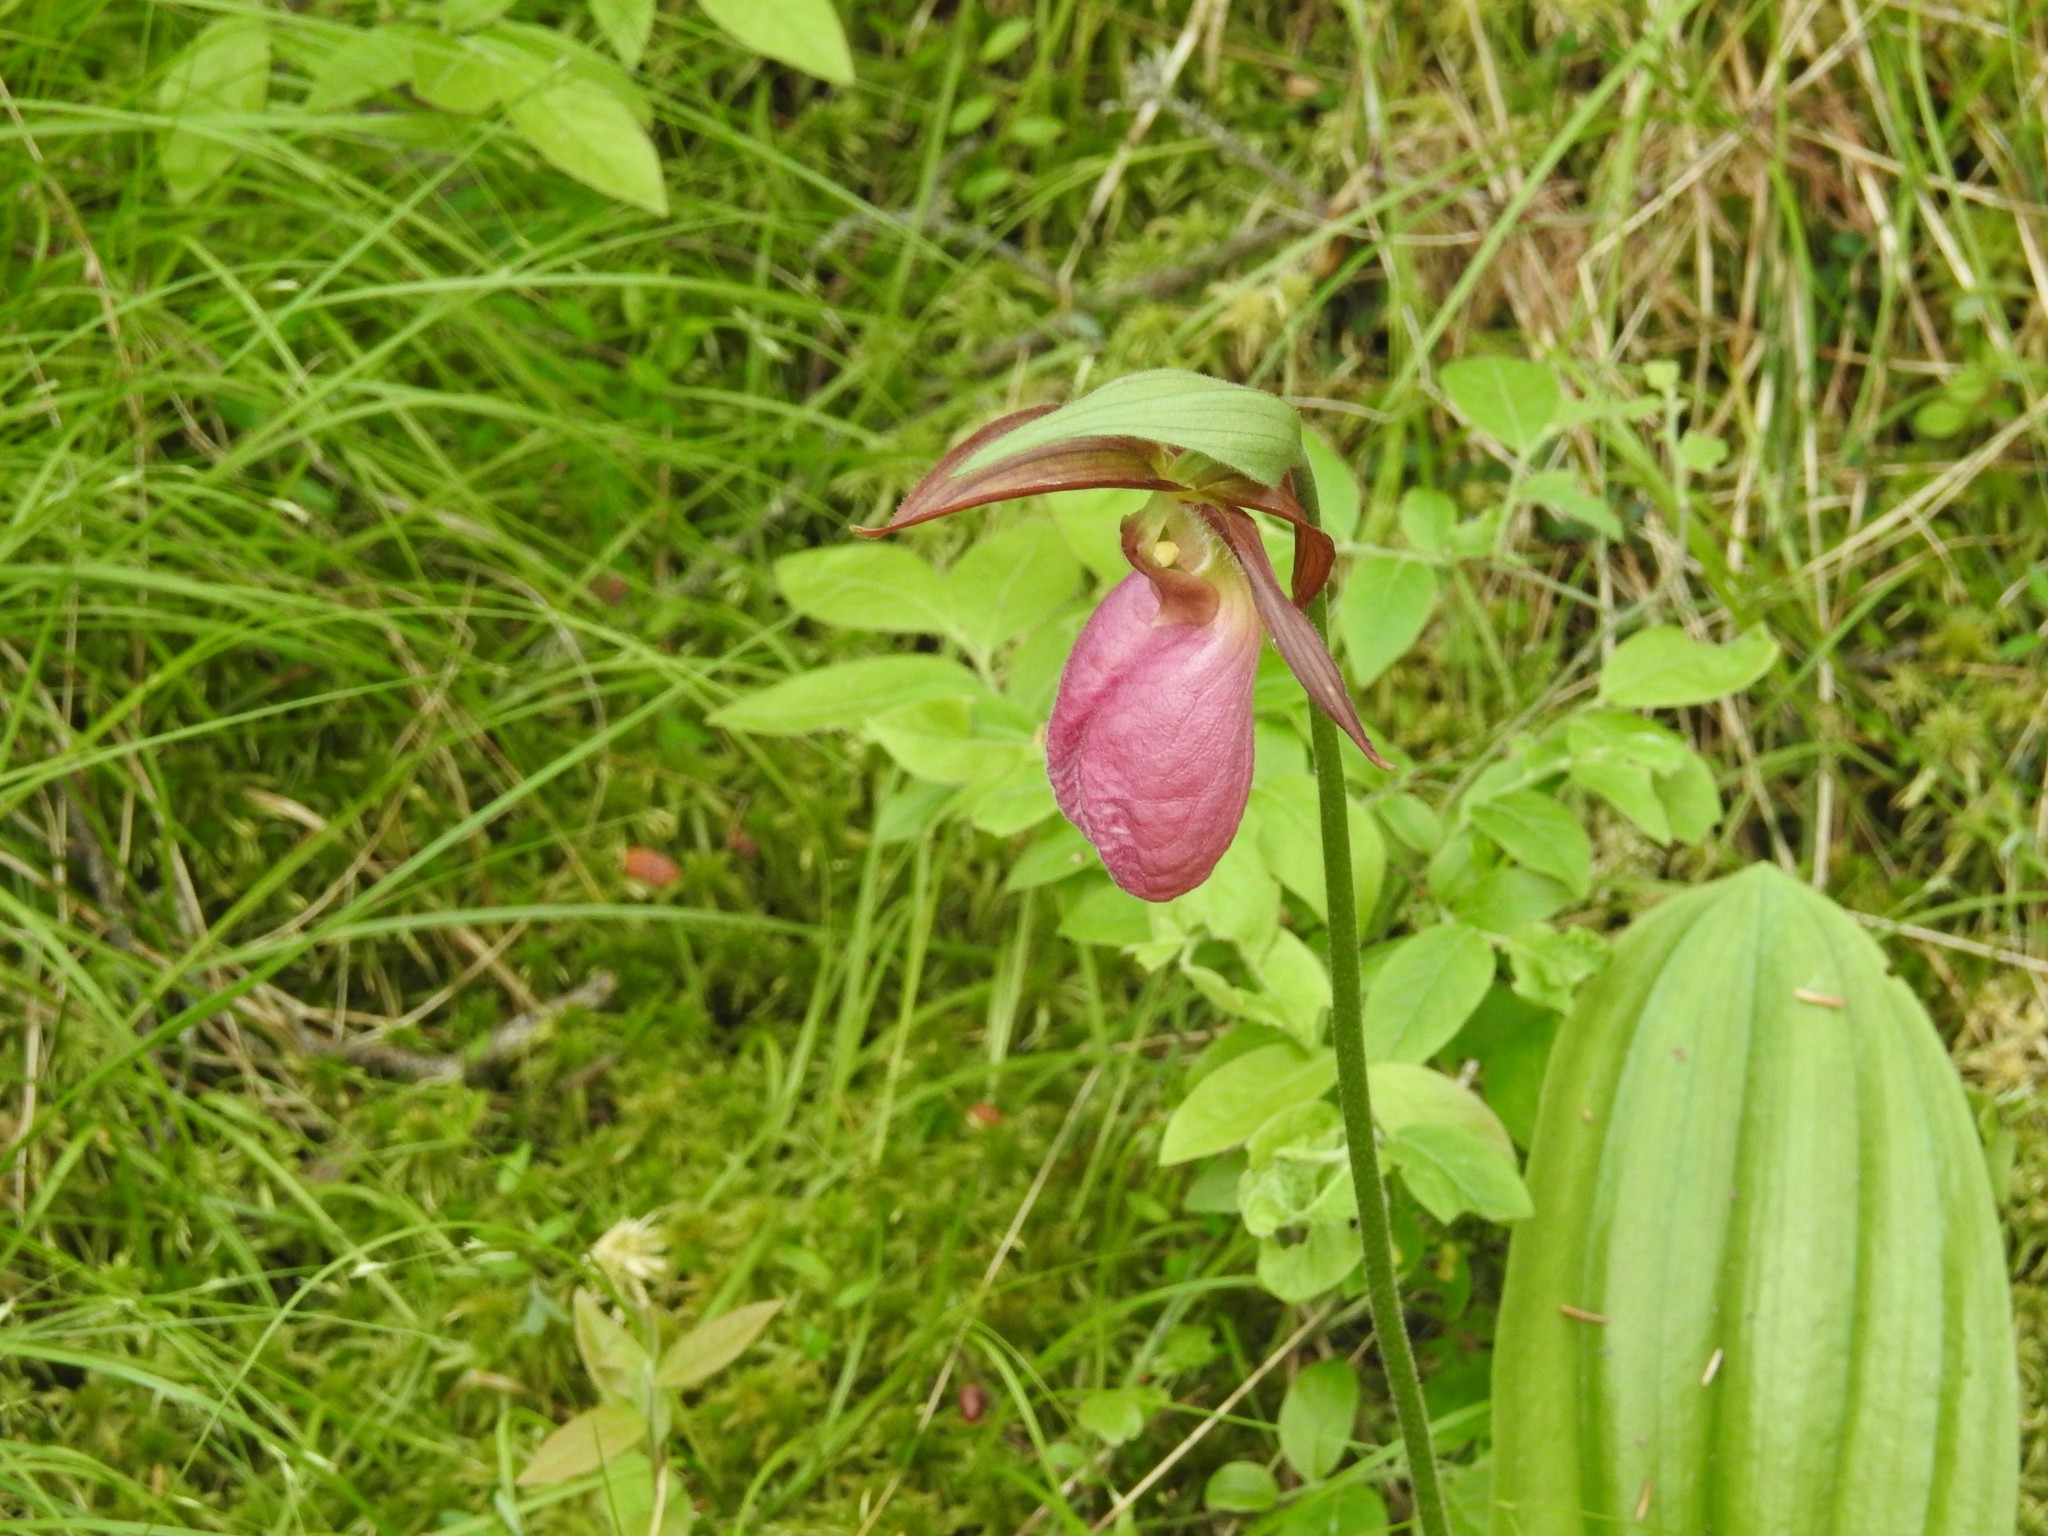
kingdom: Plantae
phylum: Tracheophyta
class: Liliopsida
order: Asparagales
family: Orchidaceae
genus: Cypripedium
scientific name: Cypripedium acaule
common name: Pink lady's-slipper
